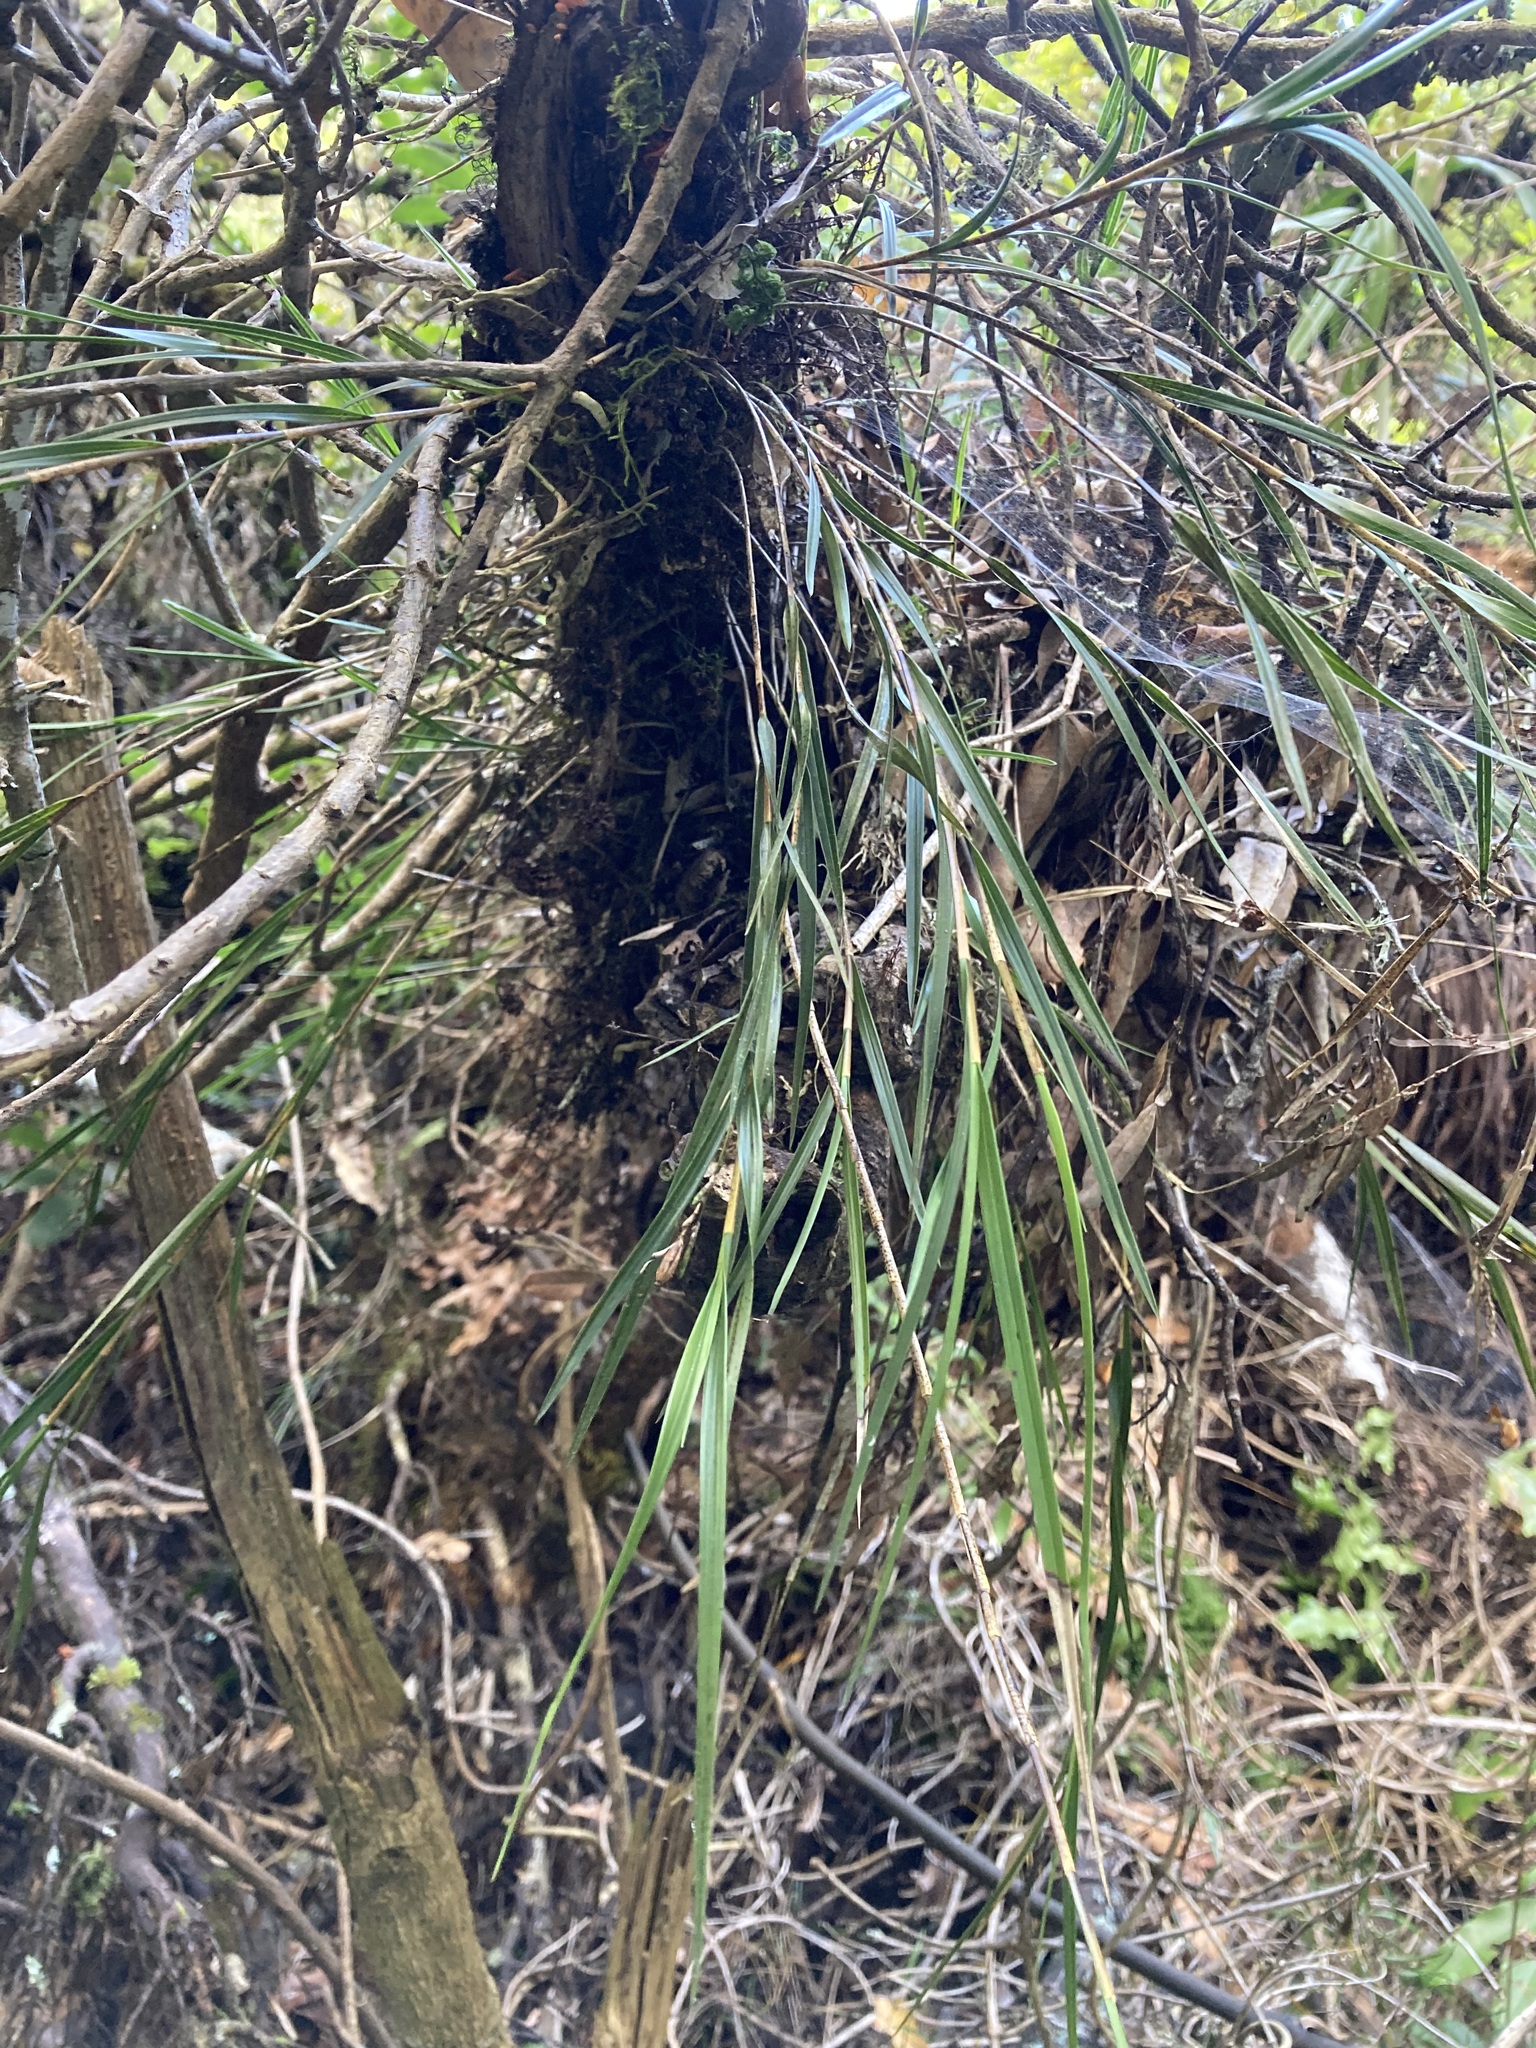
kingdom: Plantae
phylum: Tracheophyta
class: Liliopsida
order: Asparagales
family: Orchidaceae
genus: Earina
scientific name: Earina mucronata
